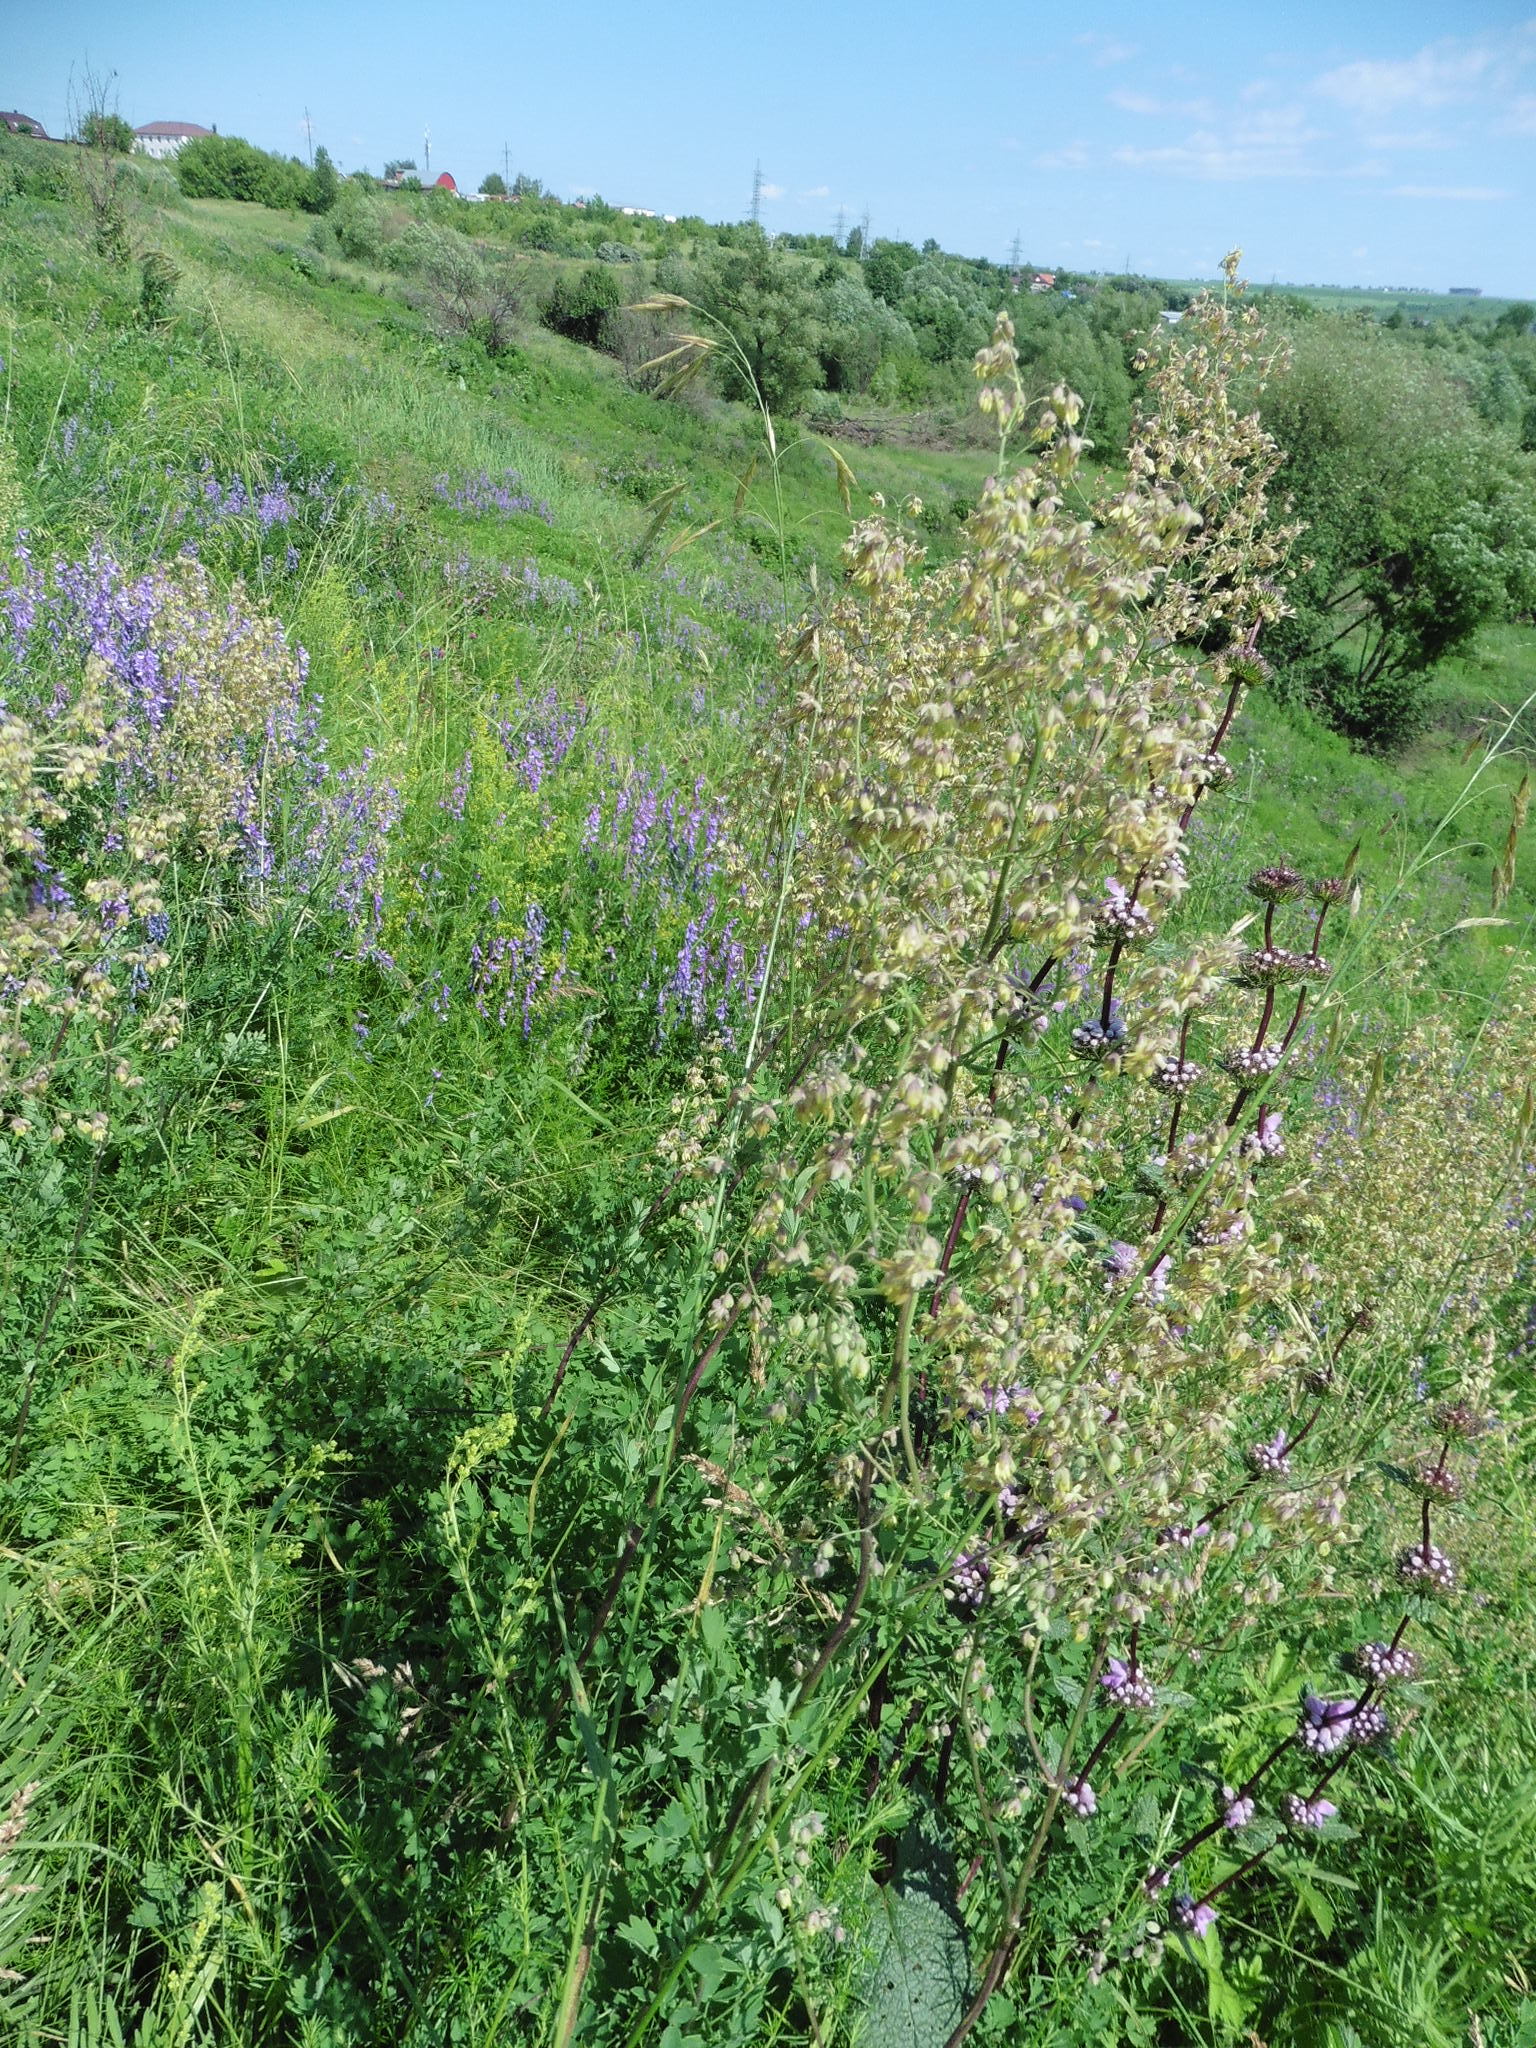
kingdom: Plantae
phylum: Tracheophyta
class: Magnoliopsida
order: Ranunculales
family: Ranunculaceae
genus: Thalictrum
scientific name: Thalictrum minus
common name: Lesser meadow-rue
